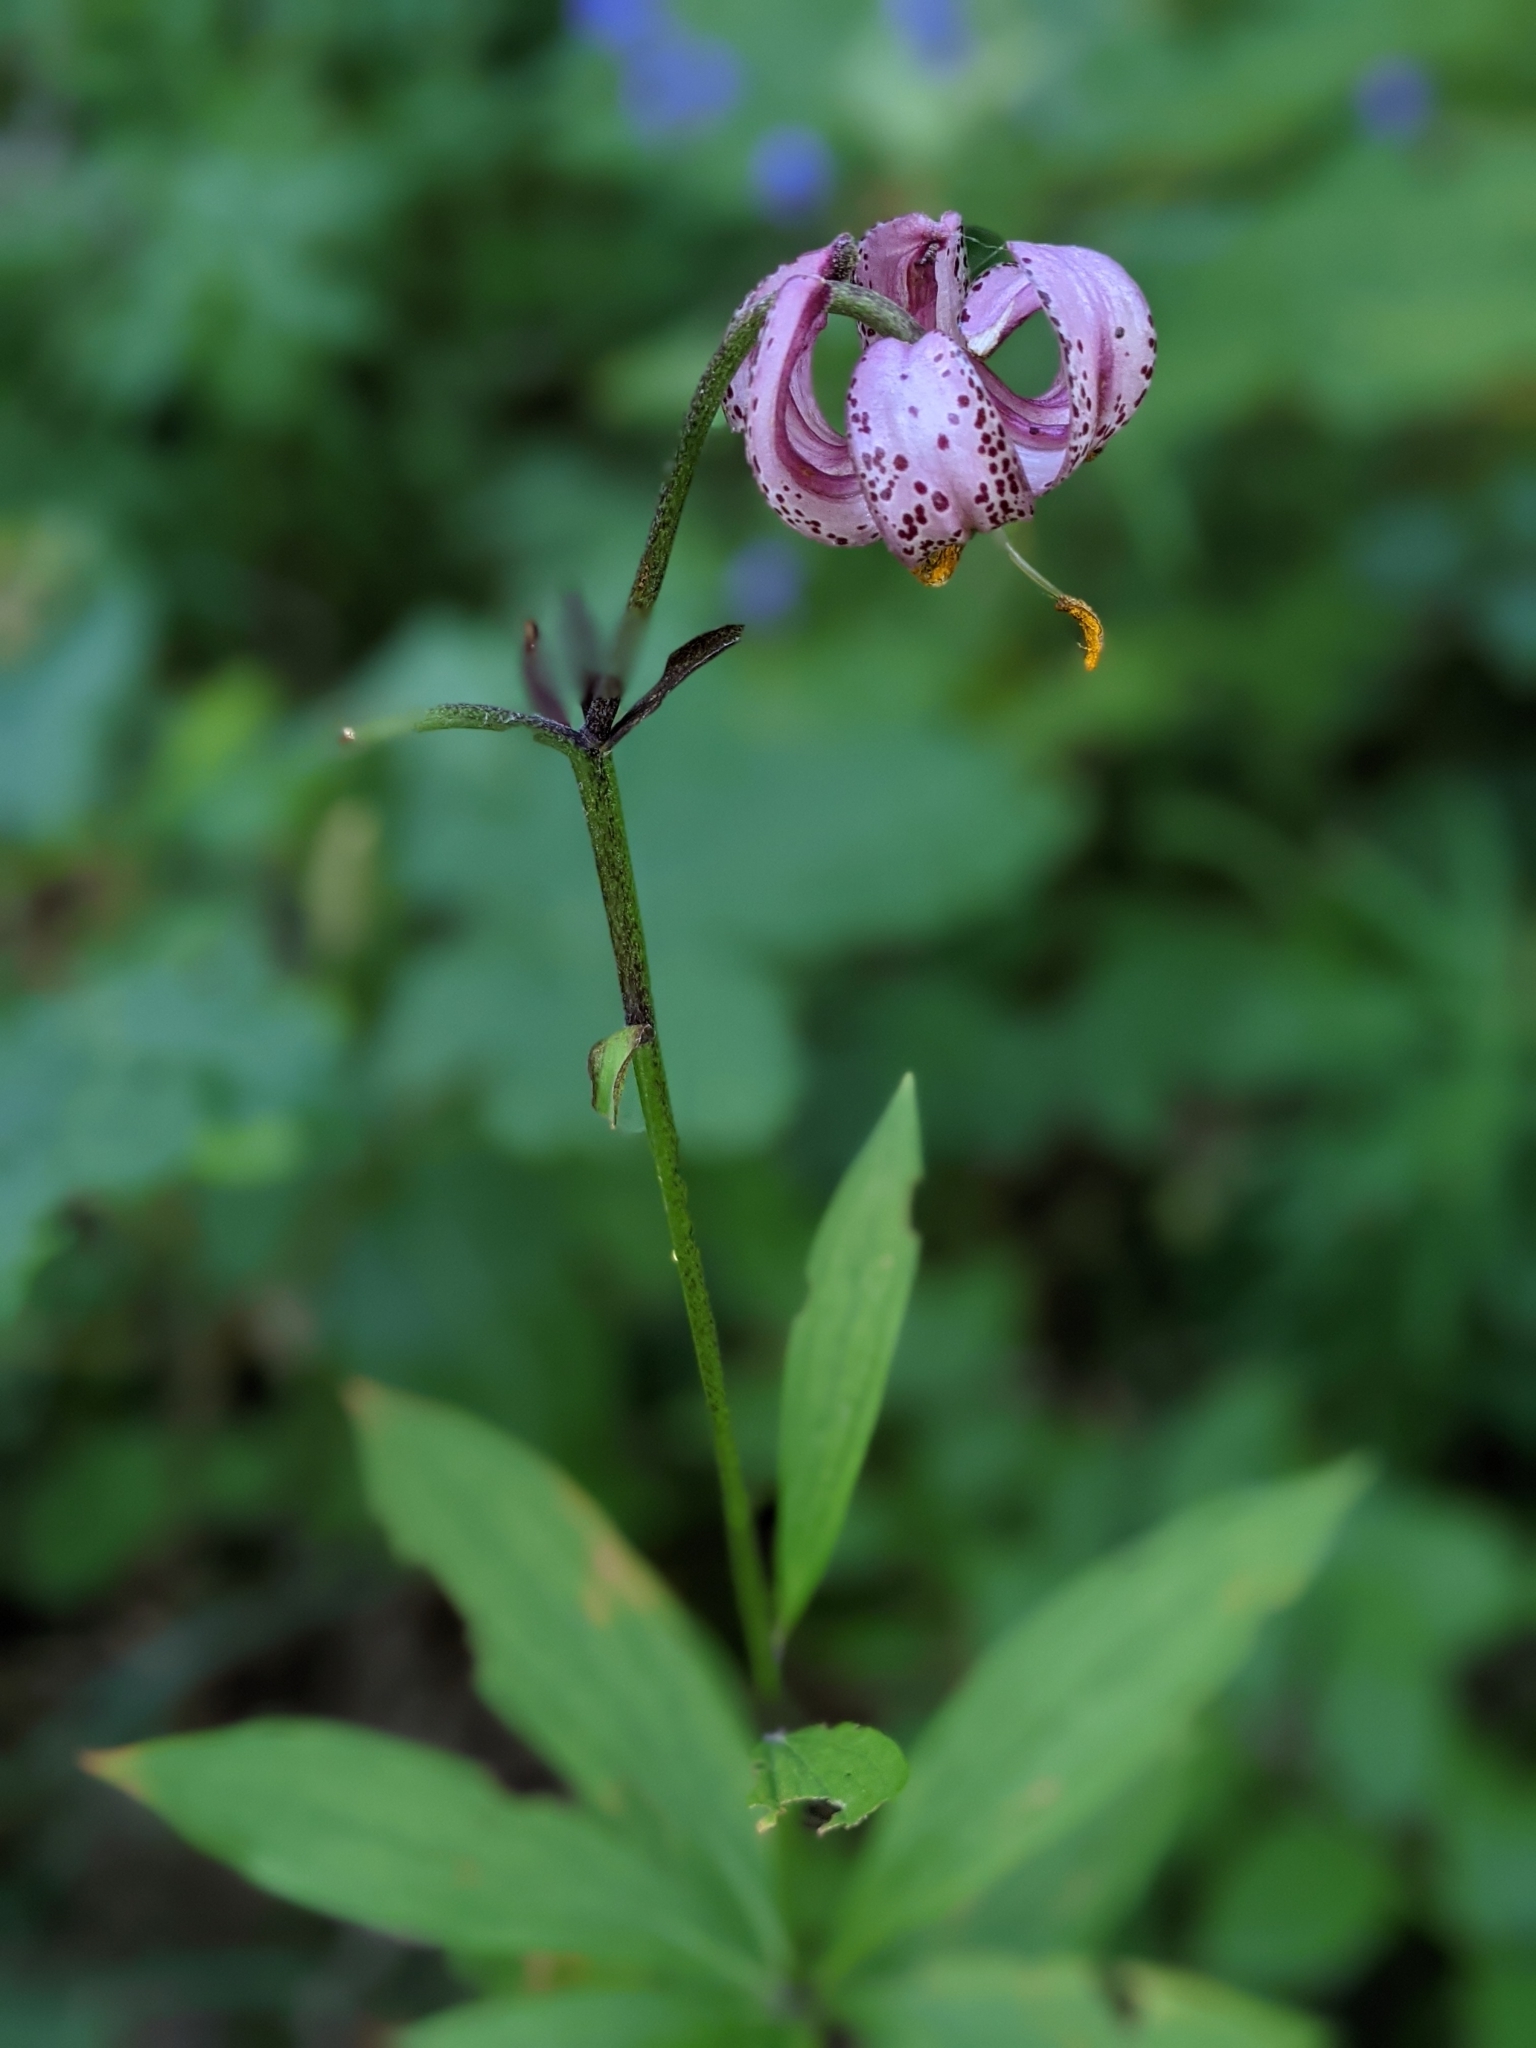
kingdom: Plantae
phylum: Tracheophyta
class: Liliopsida
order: Liliales
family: Liliaceae
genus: Lilium
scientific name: Lilium martagon
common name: Martagon lily
